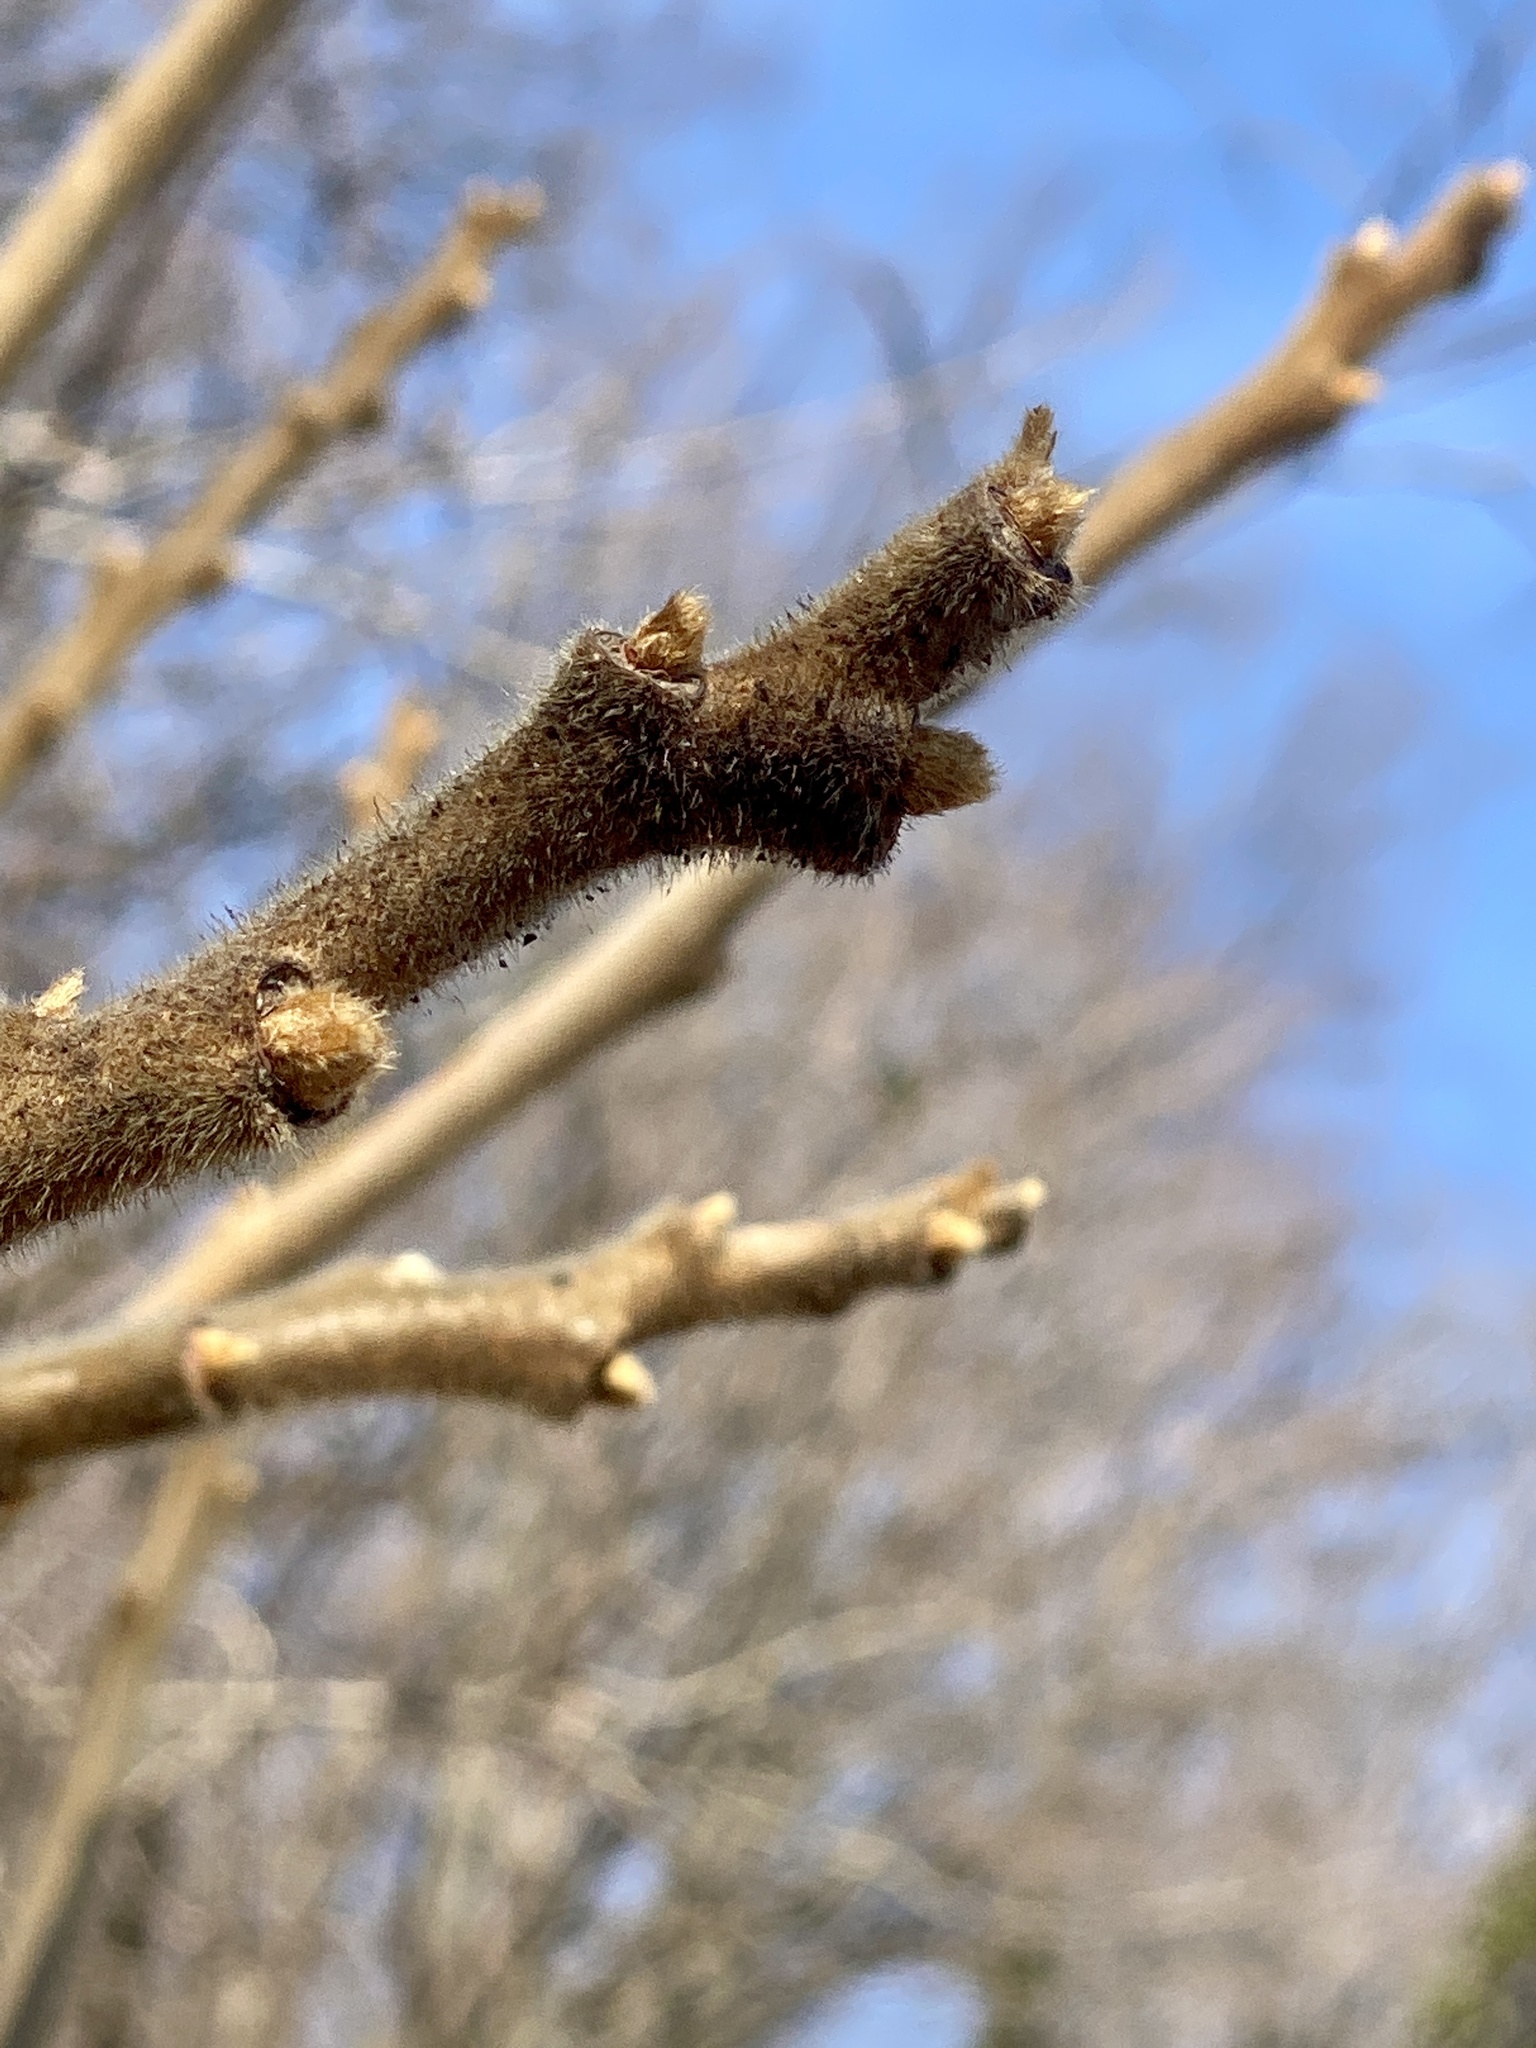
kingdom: Plantae
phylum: Tracheophyta
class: Magnoliopsida
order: Sapindales
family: Anacardiaceae
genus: Rhus
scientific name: Rhus typhina
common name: Staghorn sumac
